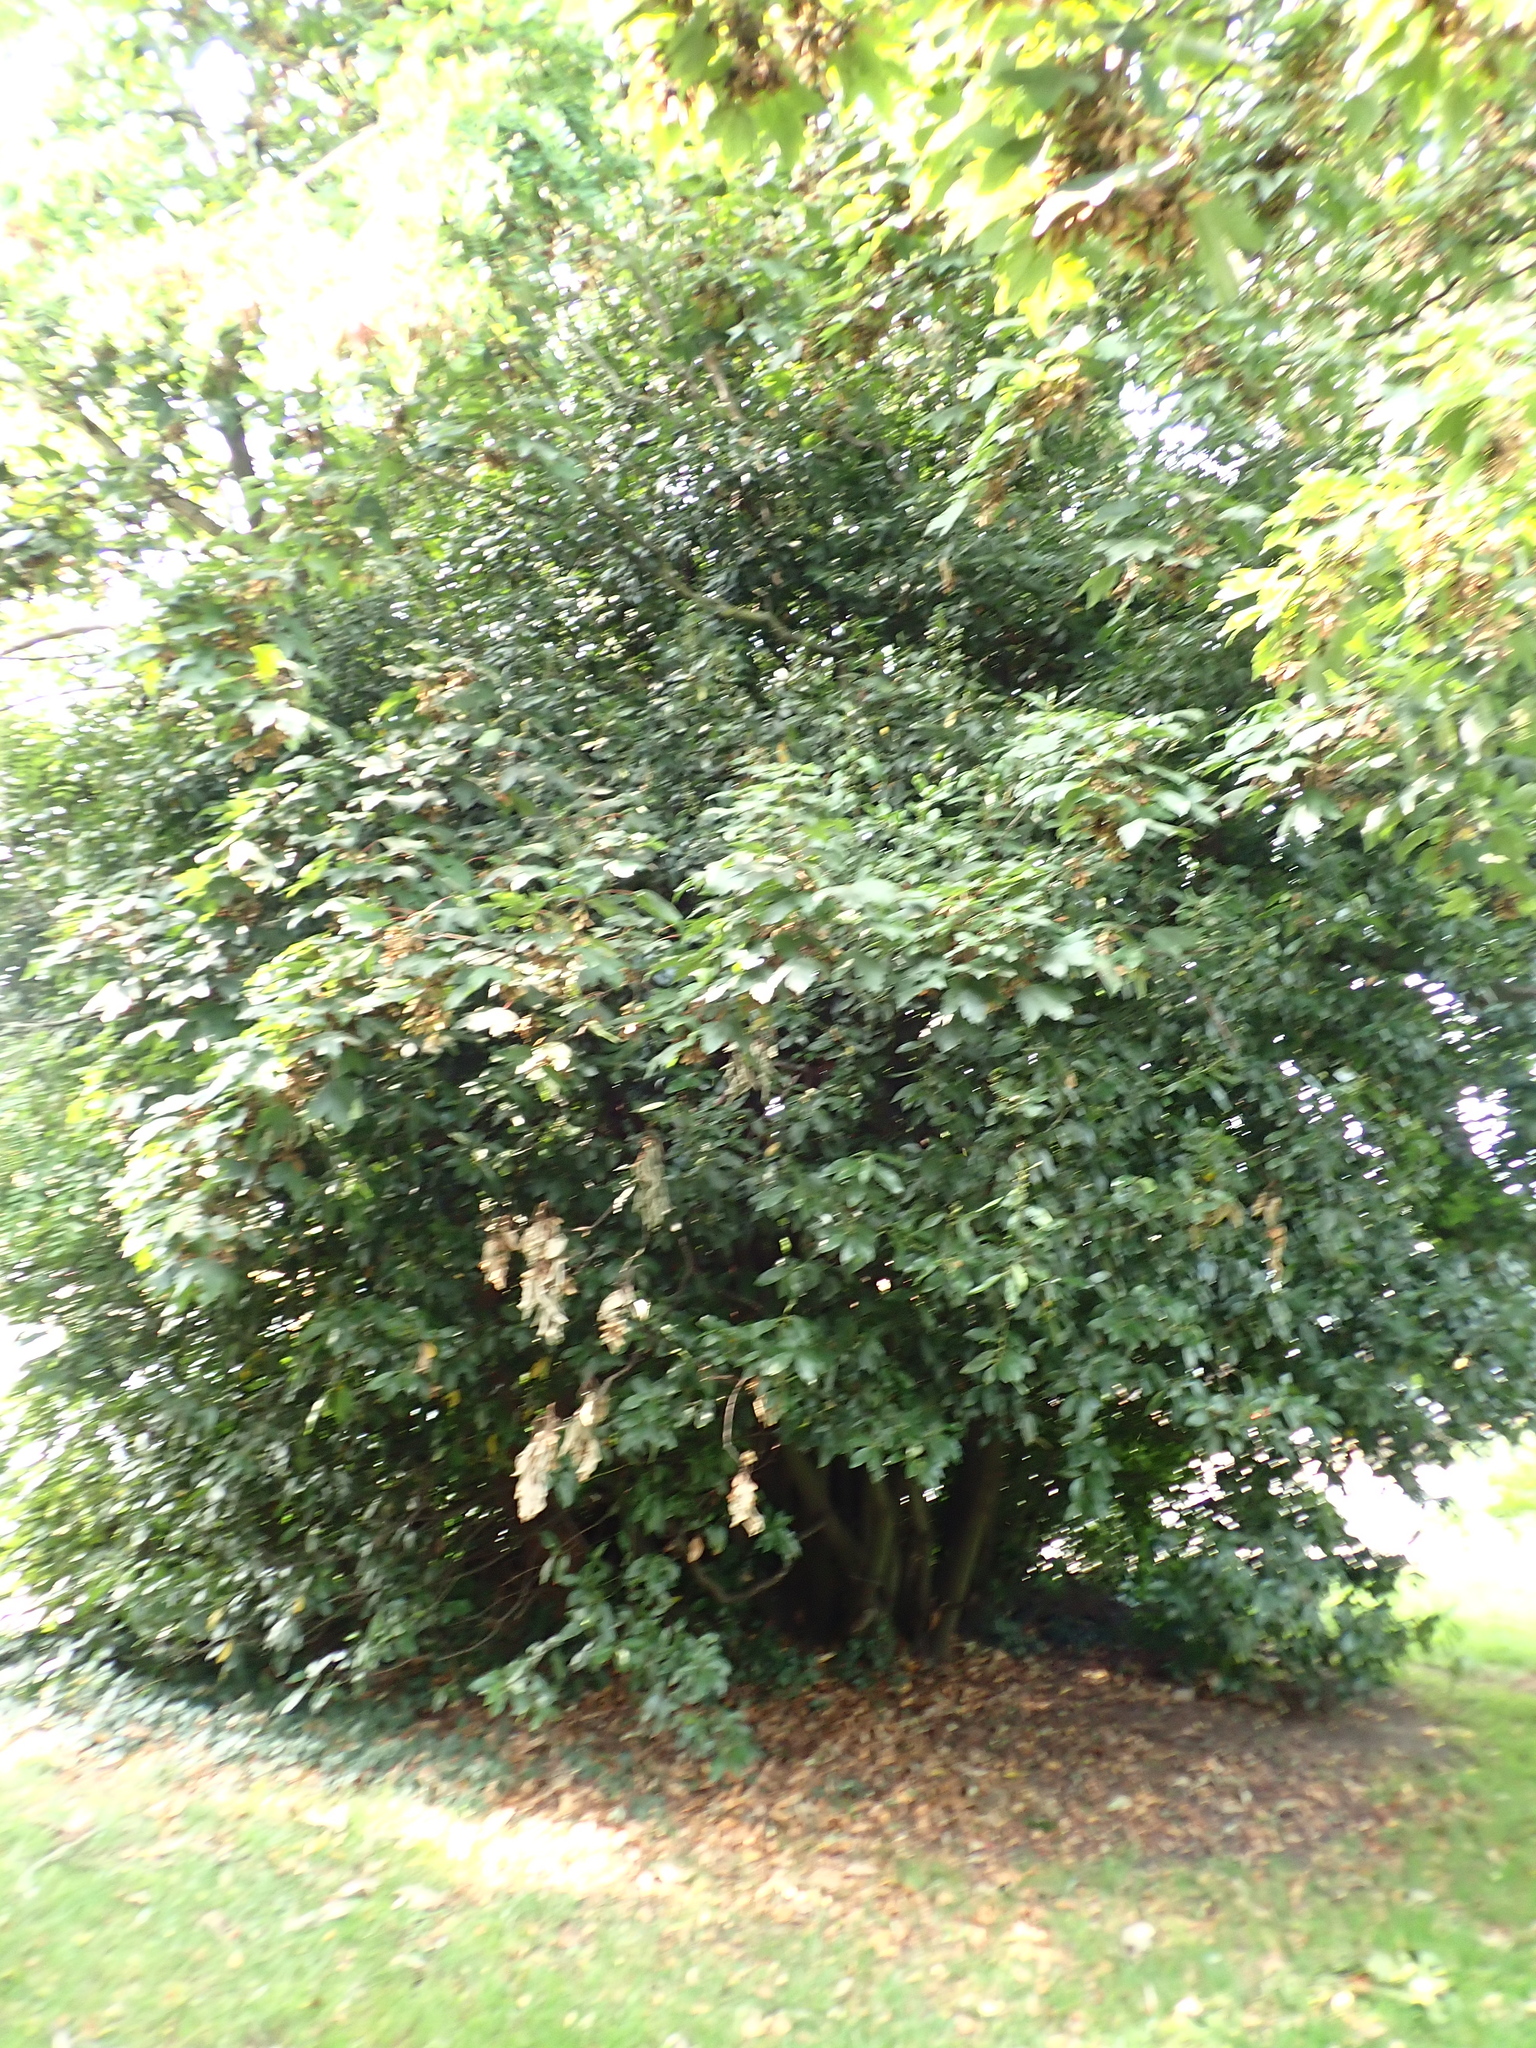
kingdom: Plantae
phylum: Tracheophyta
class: Magnoliopsida
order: Laurales
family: Lauraceae
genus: Laurus
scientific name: Laurus nobilis
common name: Bay
